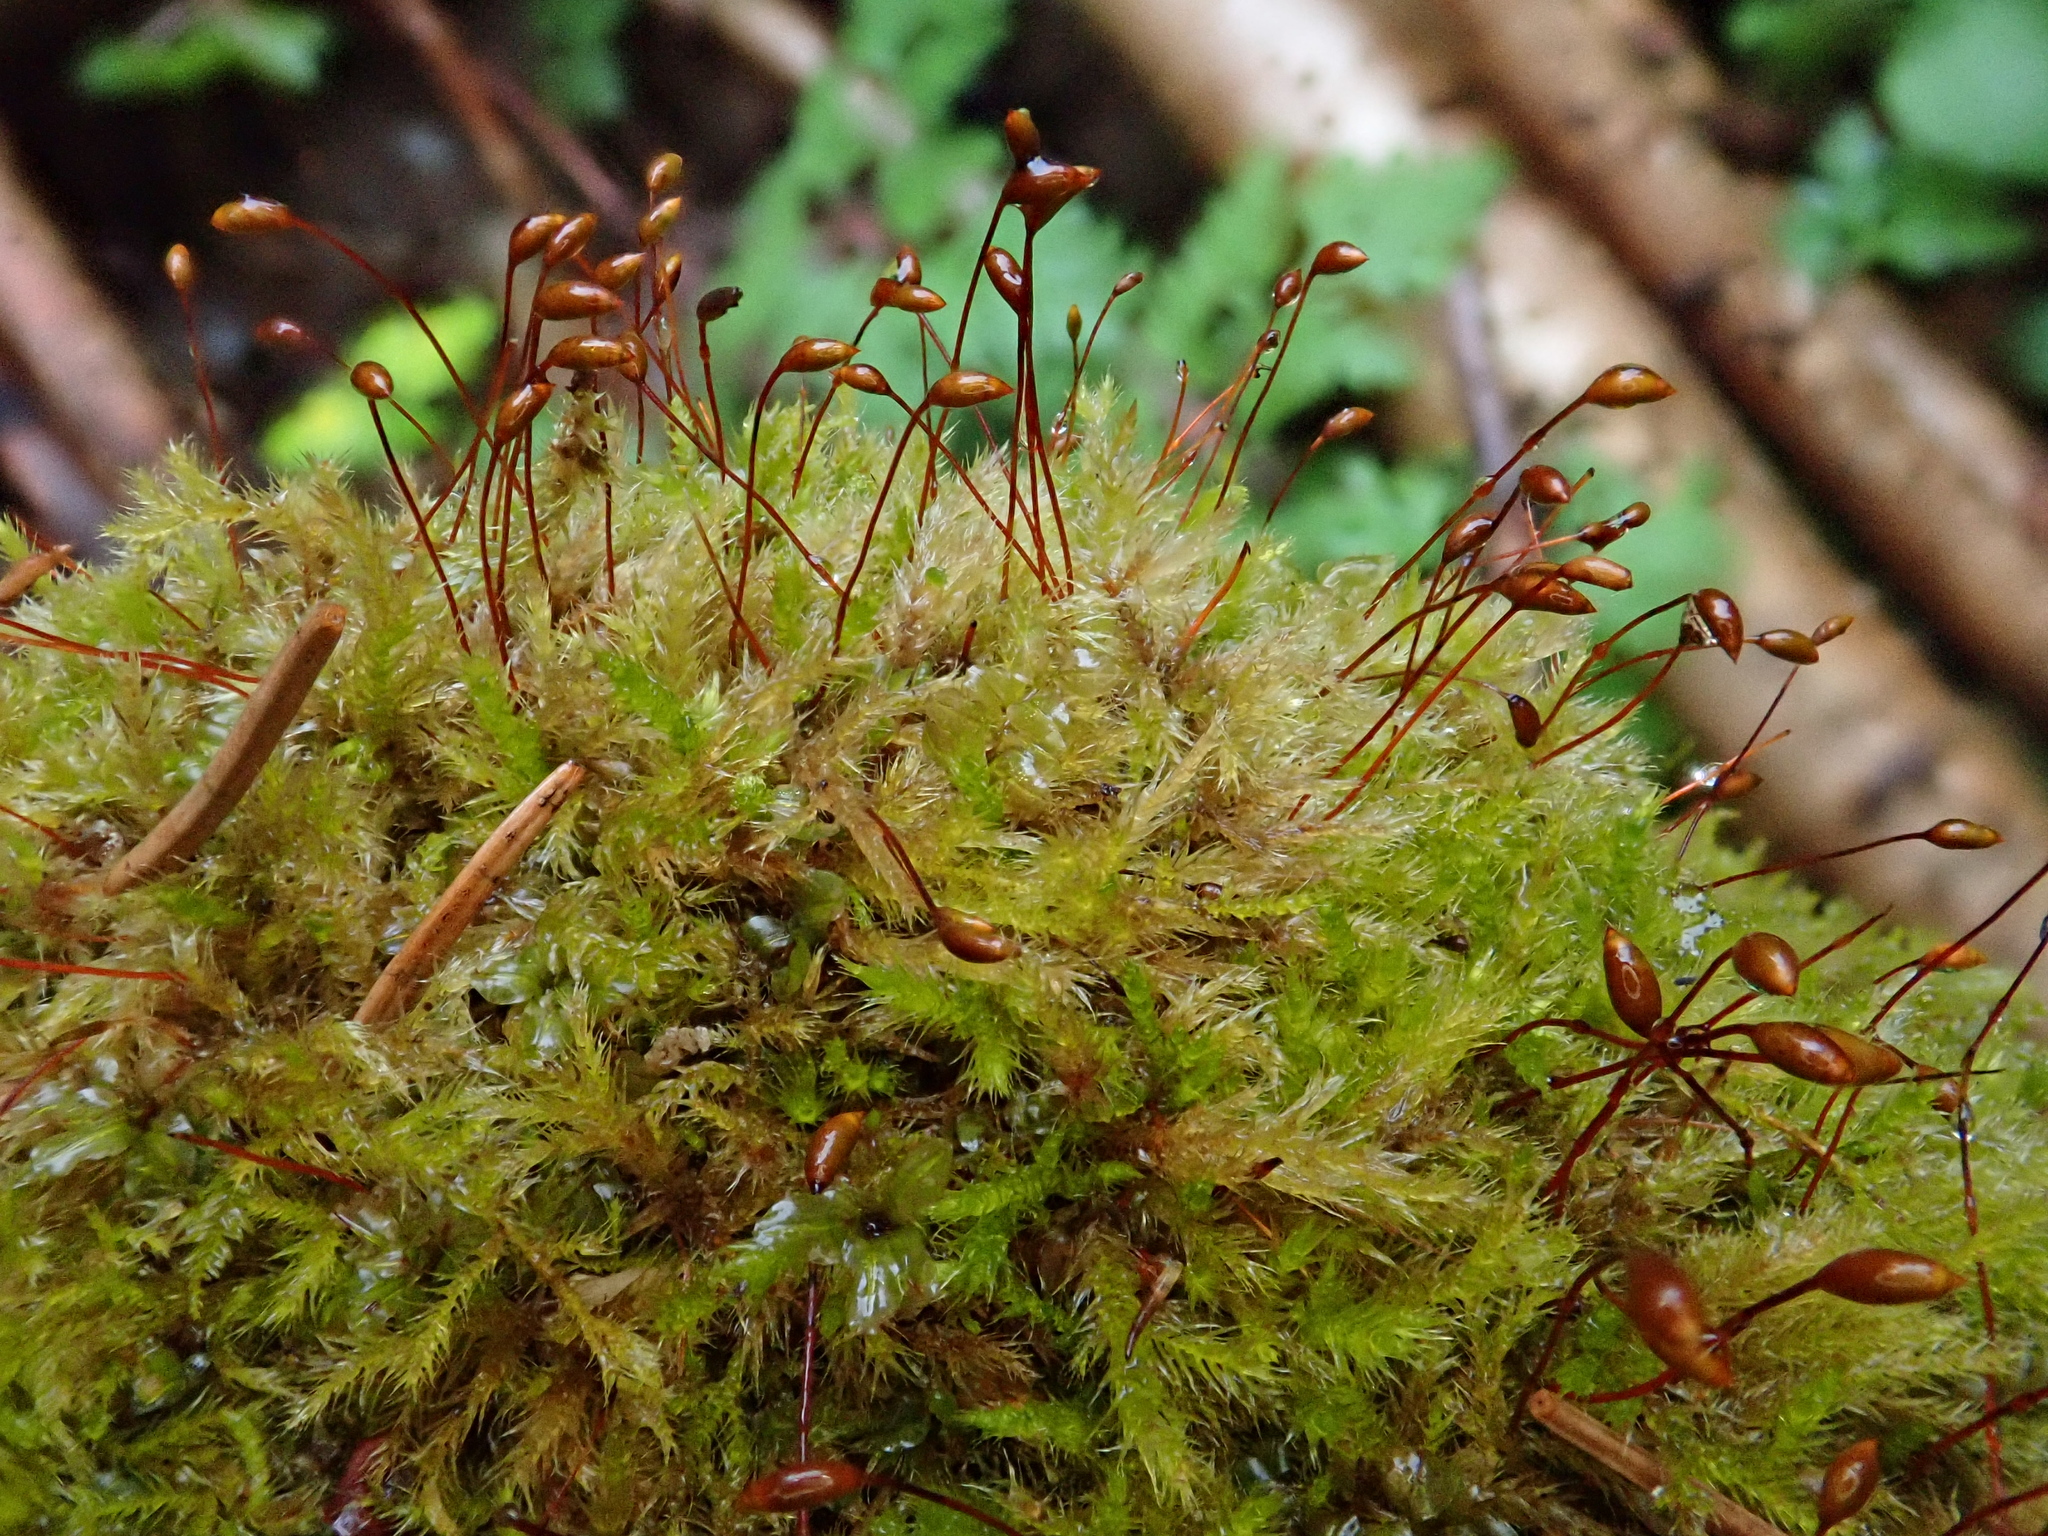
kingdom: Plantae
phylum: Bryophyta
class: Bryopsida
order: Hypnales
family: Brachytheciaceae
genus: Sciuro-hypnum
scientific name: Sciuro-hypnum populeum
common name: Matted feather-moss
